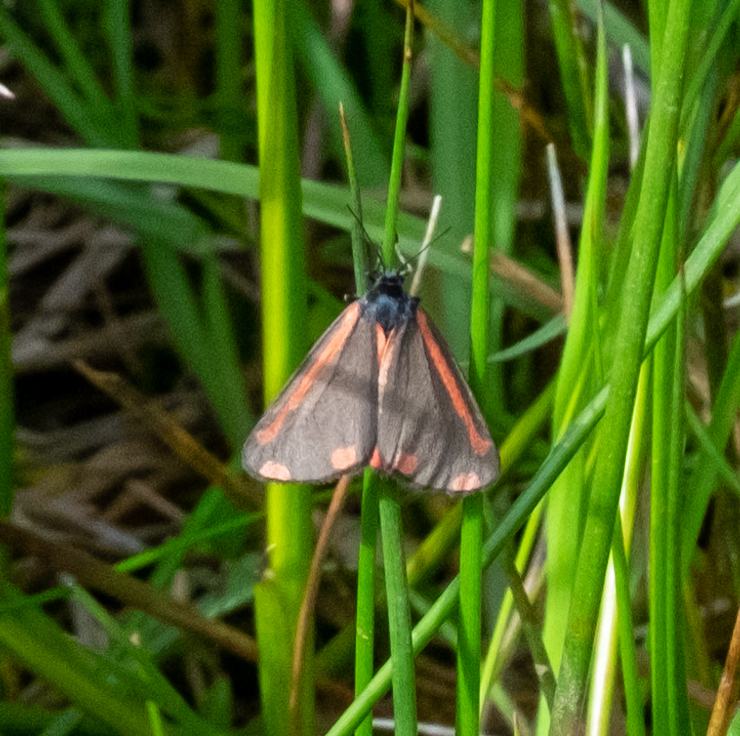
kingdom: Animalia
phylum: Arthropoda
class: Insecta
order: Lepidoptera
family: Erebidae
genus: Tyria
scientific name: Tyria jacobaeae
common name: Cinnabar
